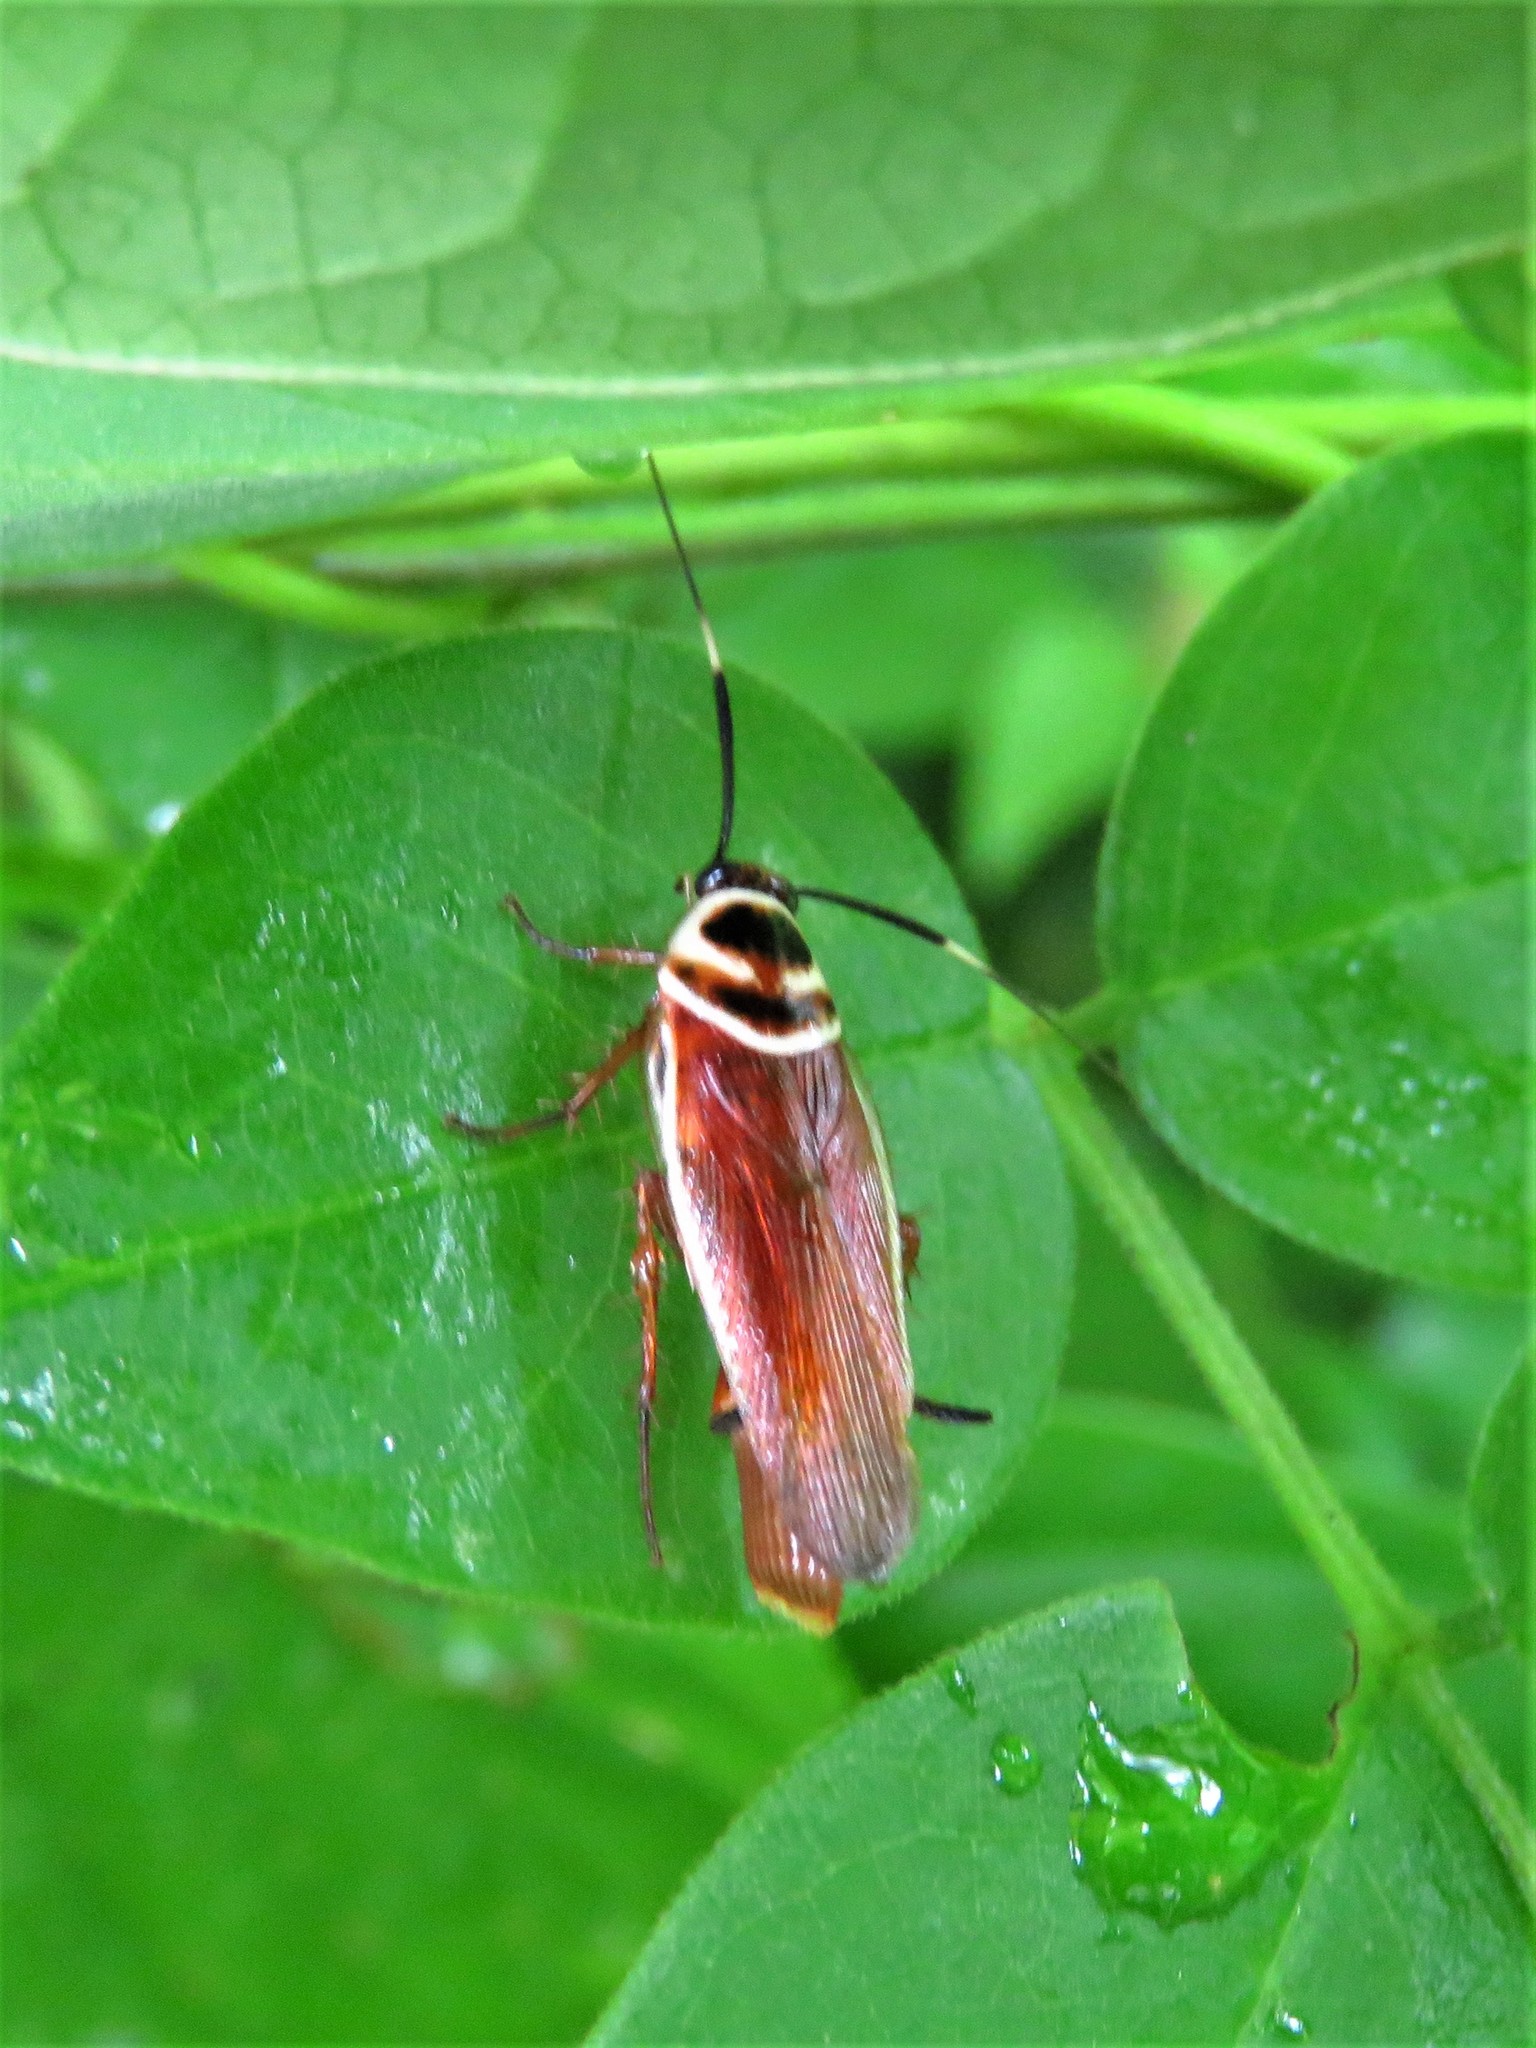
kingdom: Animalia
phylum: Arthropoda
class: Insecta
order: Blattodea
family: Ectobiidae
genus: Pseudomops
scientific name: Pseudomops interceptus
